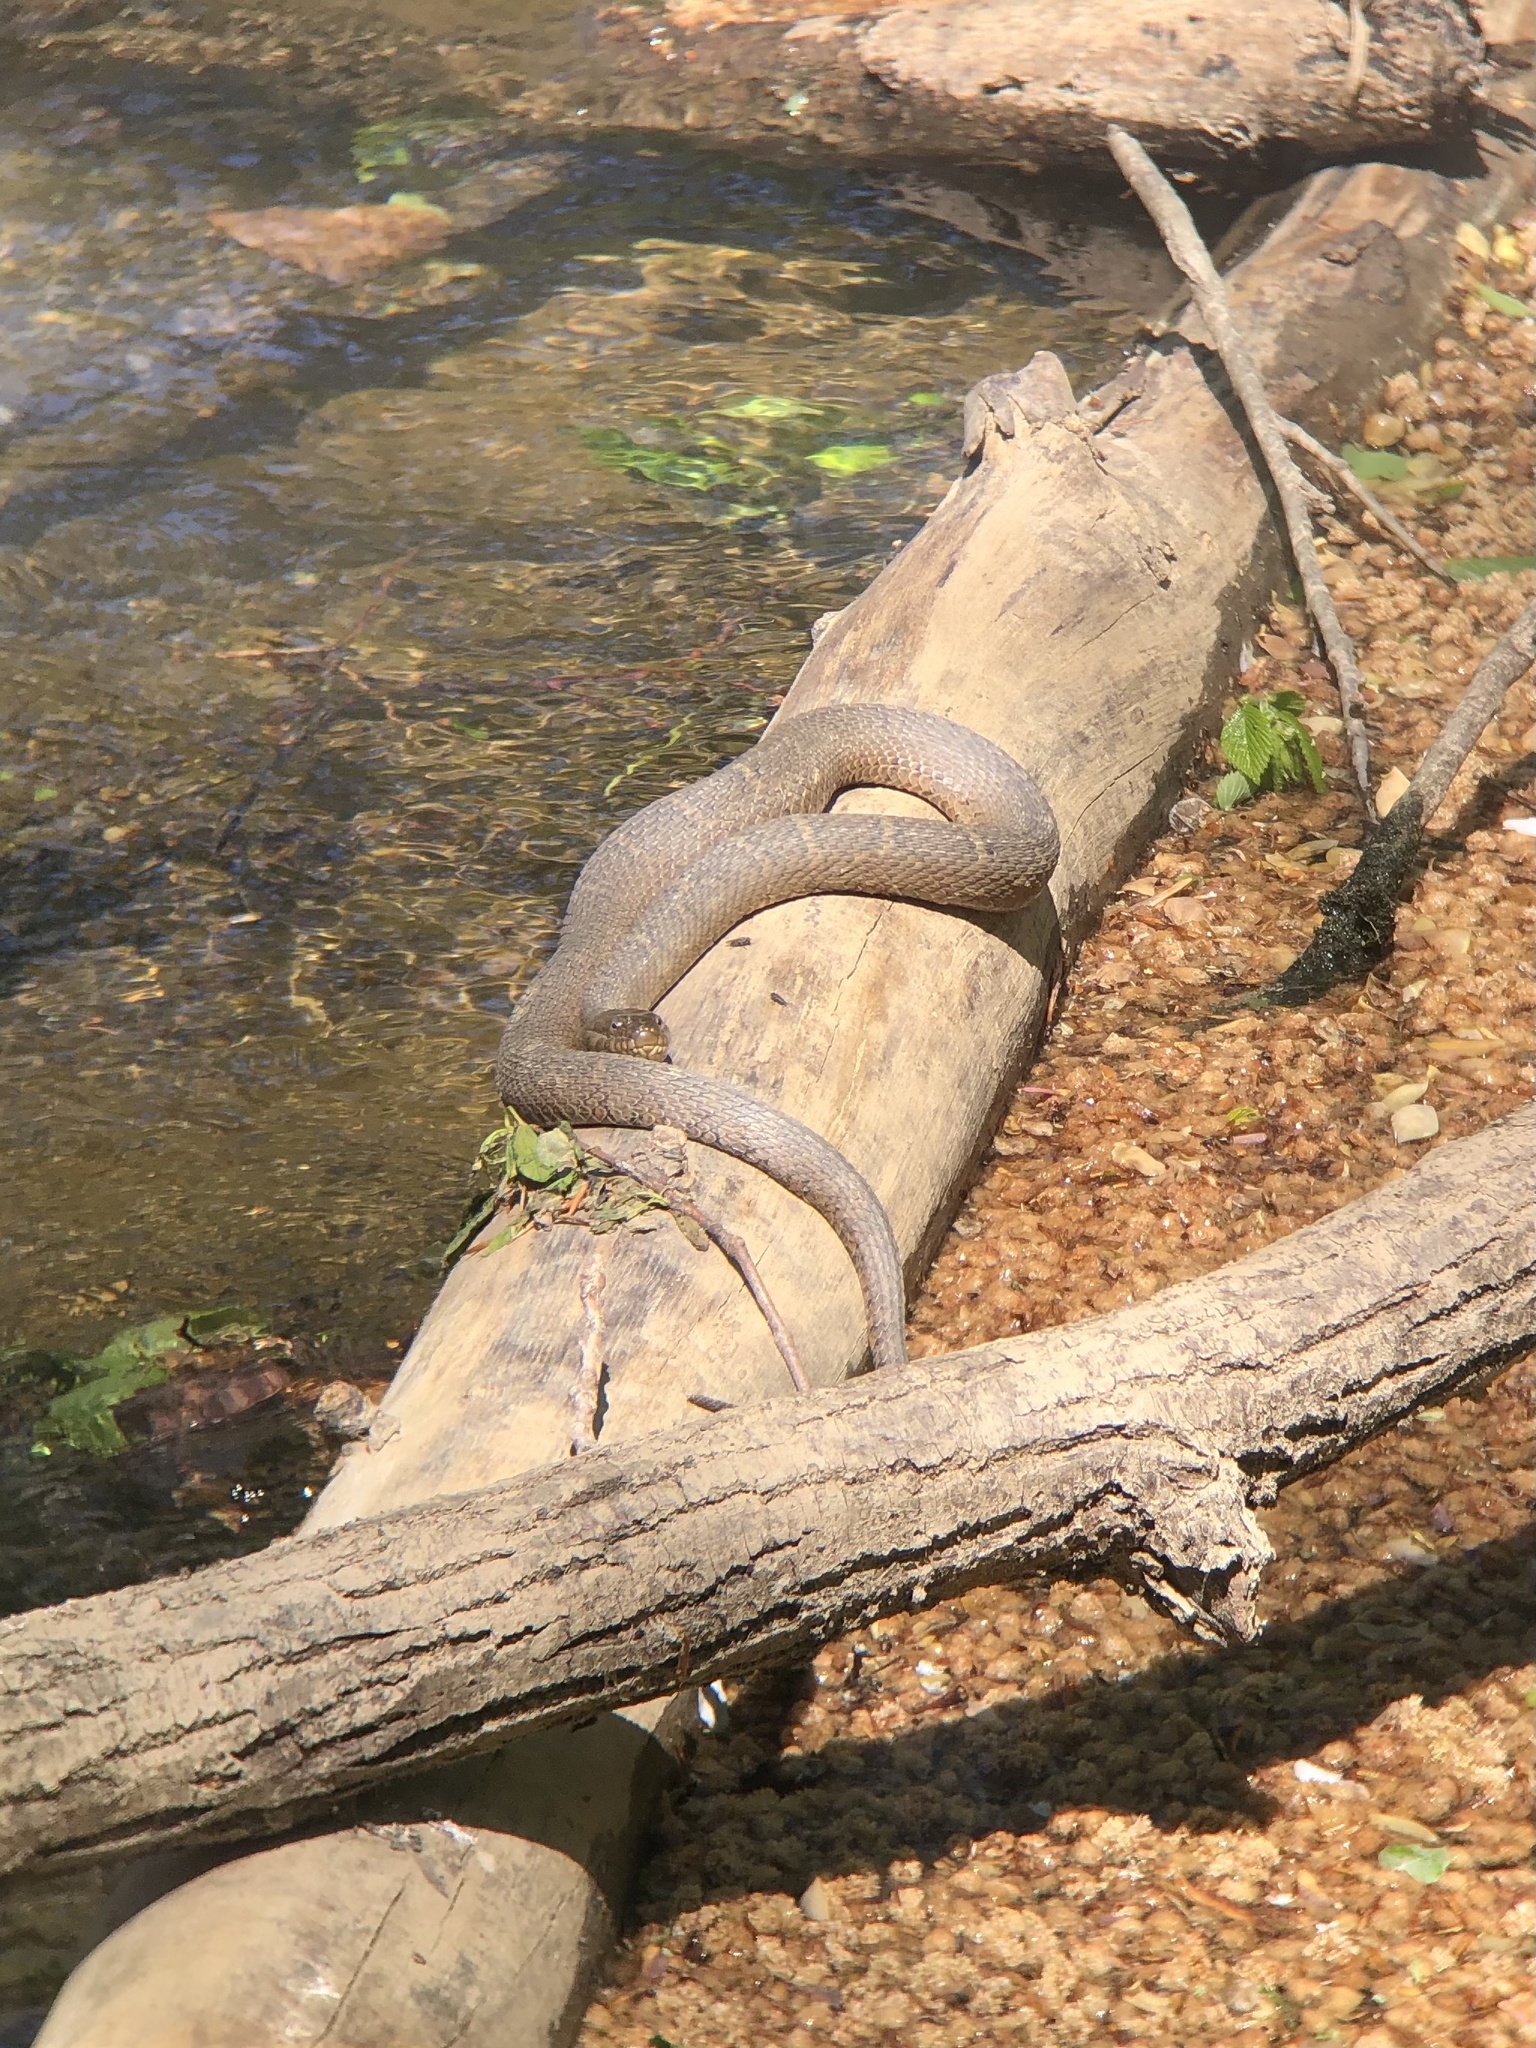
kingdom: Animalia
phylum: Chordata
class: Squamata
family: Colubridae
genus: Nerodia
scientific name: Nerodia sipedon
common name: Northern water snake
